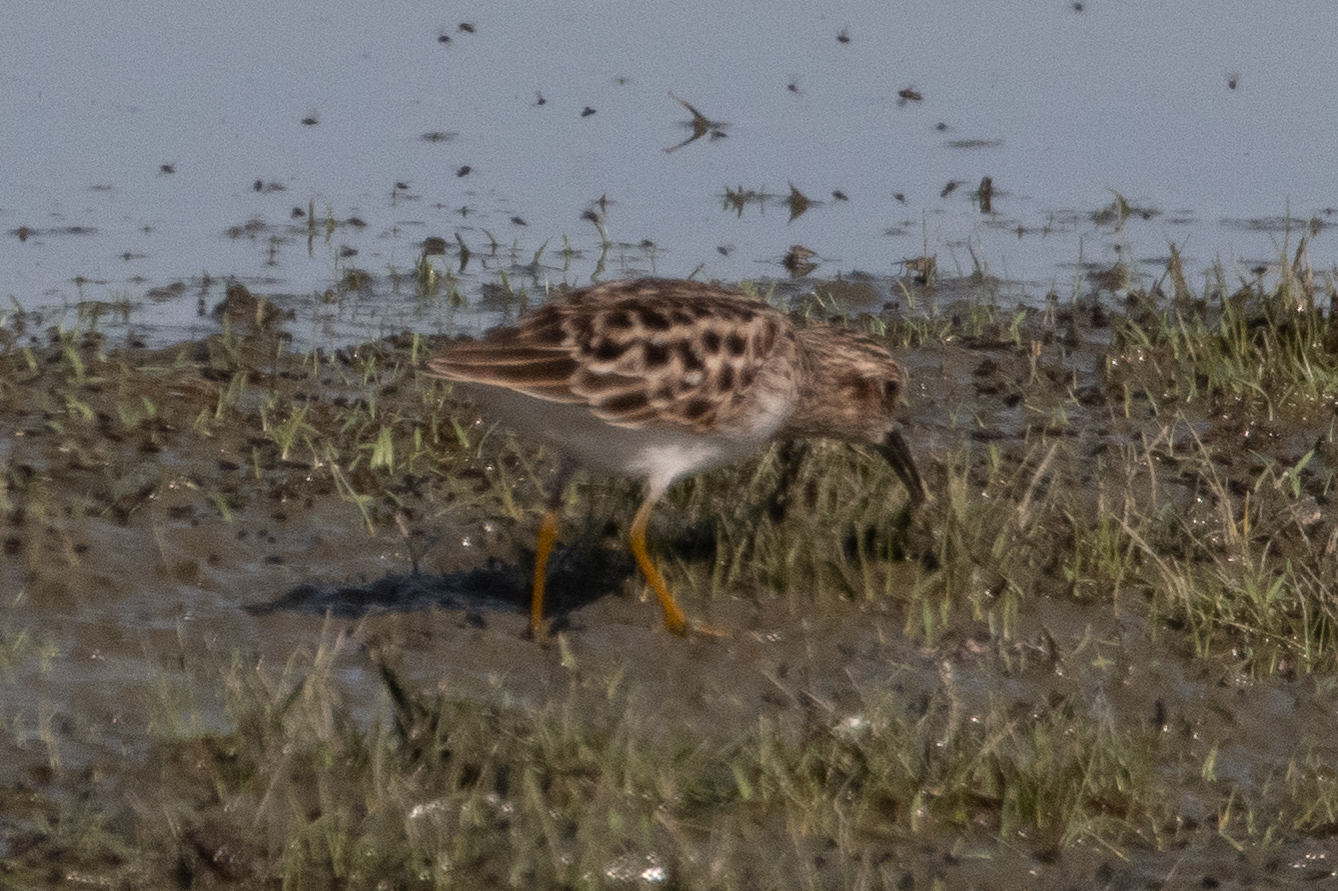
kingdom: Animalia
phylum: Chordata
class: Aves
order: Charadriiformes
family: Scolopacidae
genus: Calidris
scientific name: Calidris minutilla
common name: Least sandpiper
